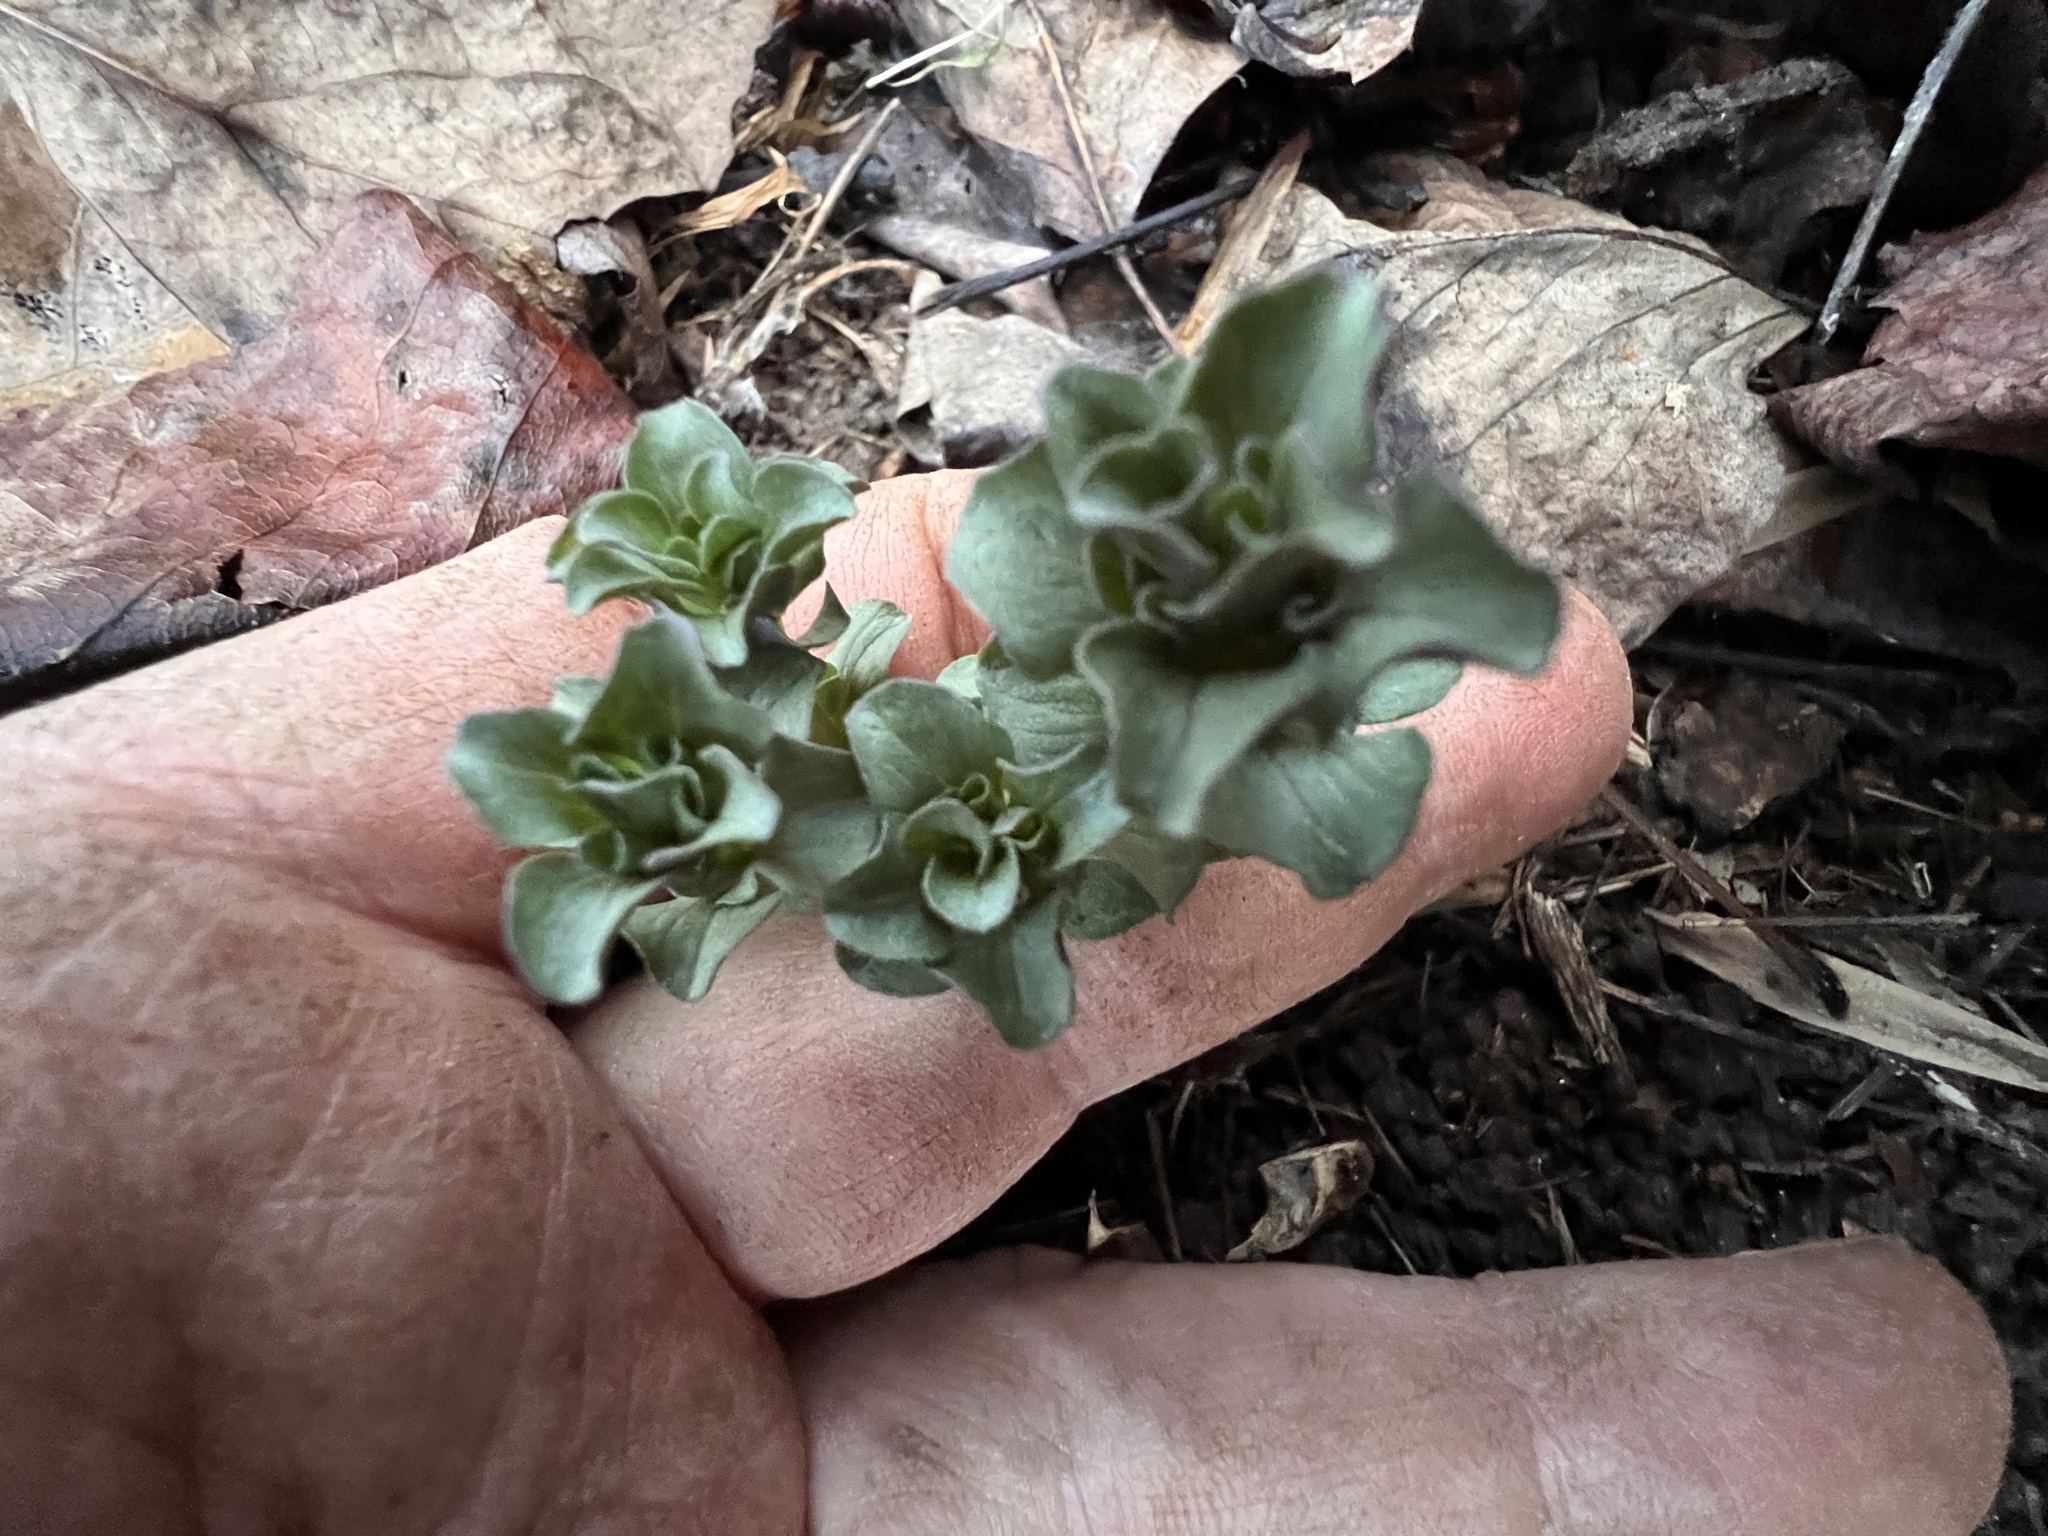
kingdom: Plantae
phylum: Tracheophyta
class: Magnoliopsida
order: Gentianales
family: Gentianaceae
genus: Obolaria
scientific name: Obolaria virginica
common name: Pennywort
